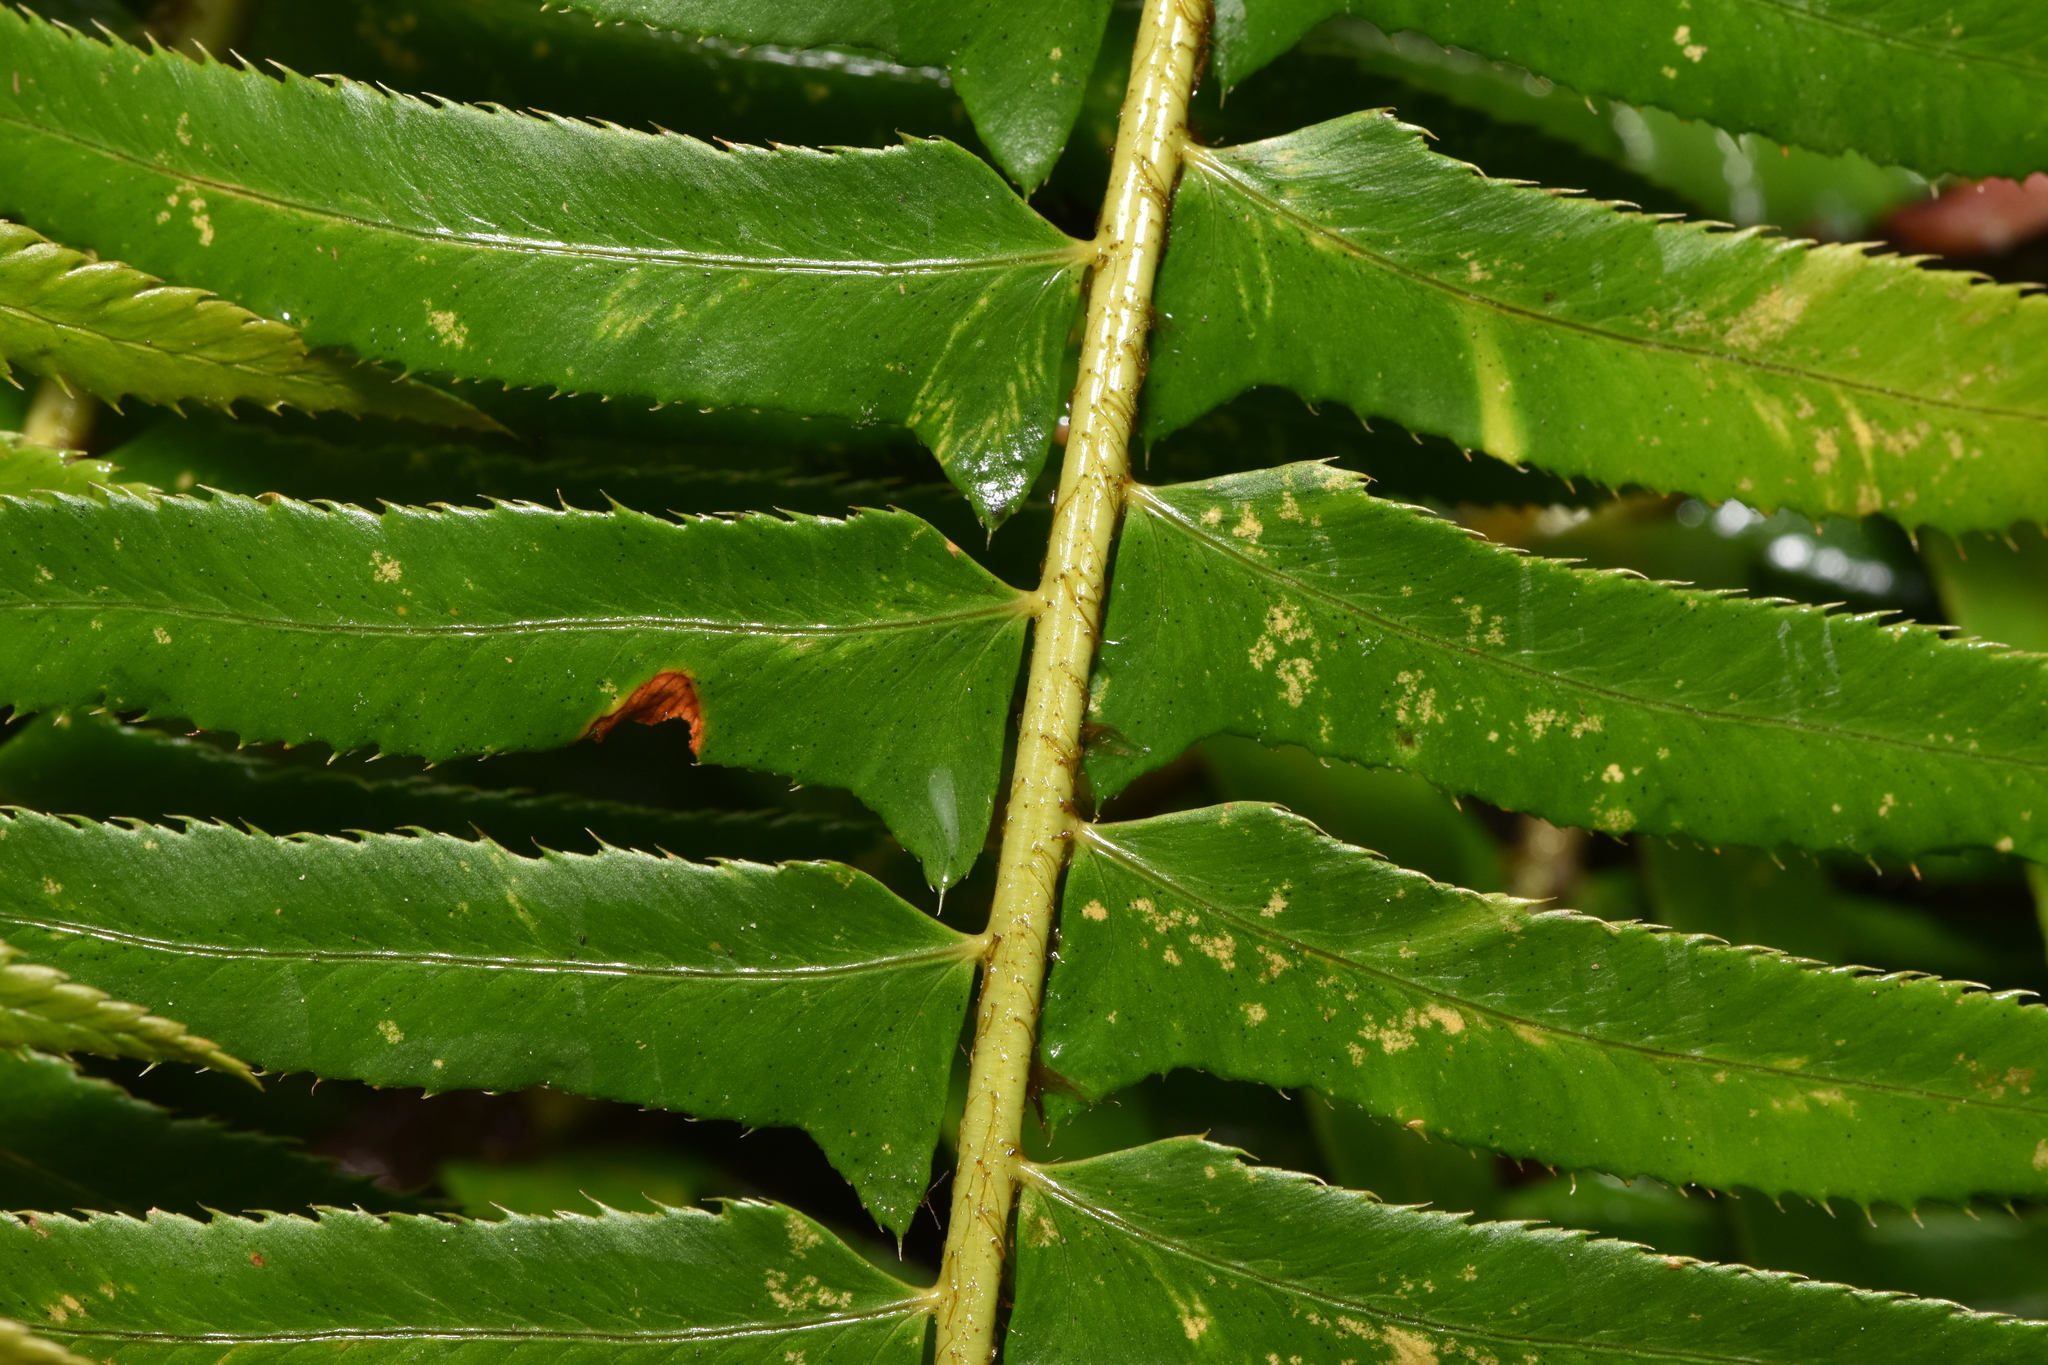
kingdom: Plantae
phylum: Tracheophyta
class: Polypodiopsida
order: Polypodiales
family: Dryopteridaceae
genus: Polystichum
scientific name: Polystichum munitum
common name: Western sword-fern
